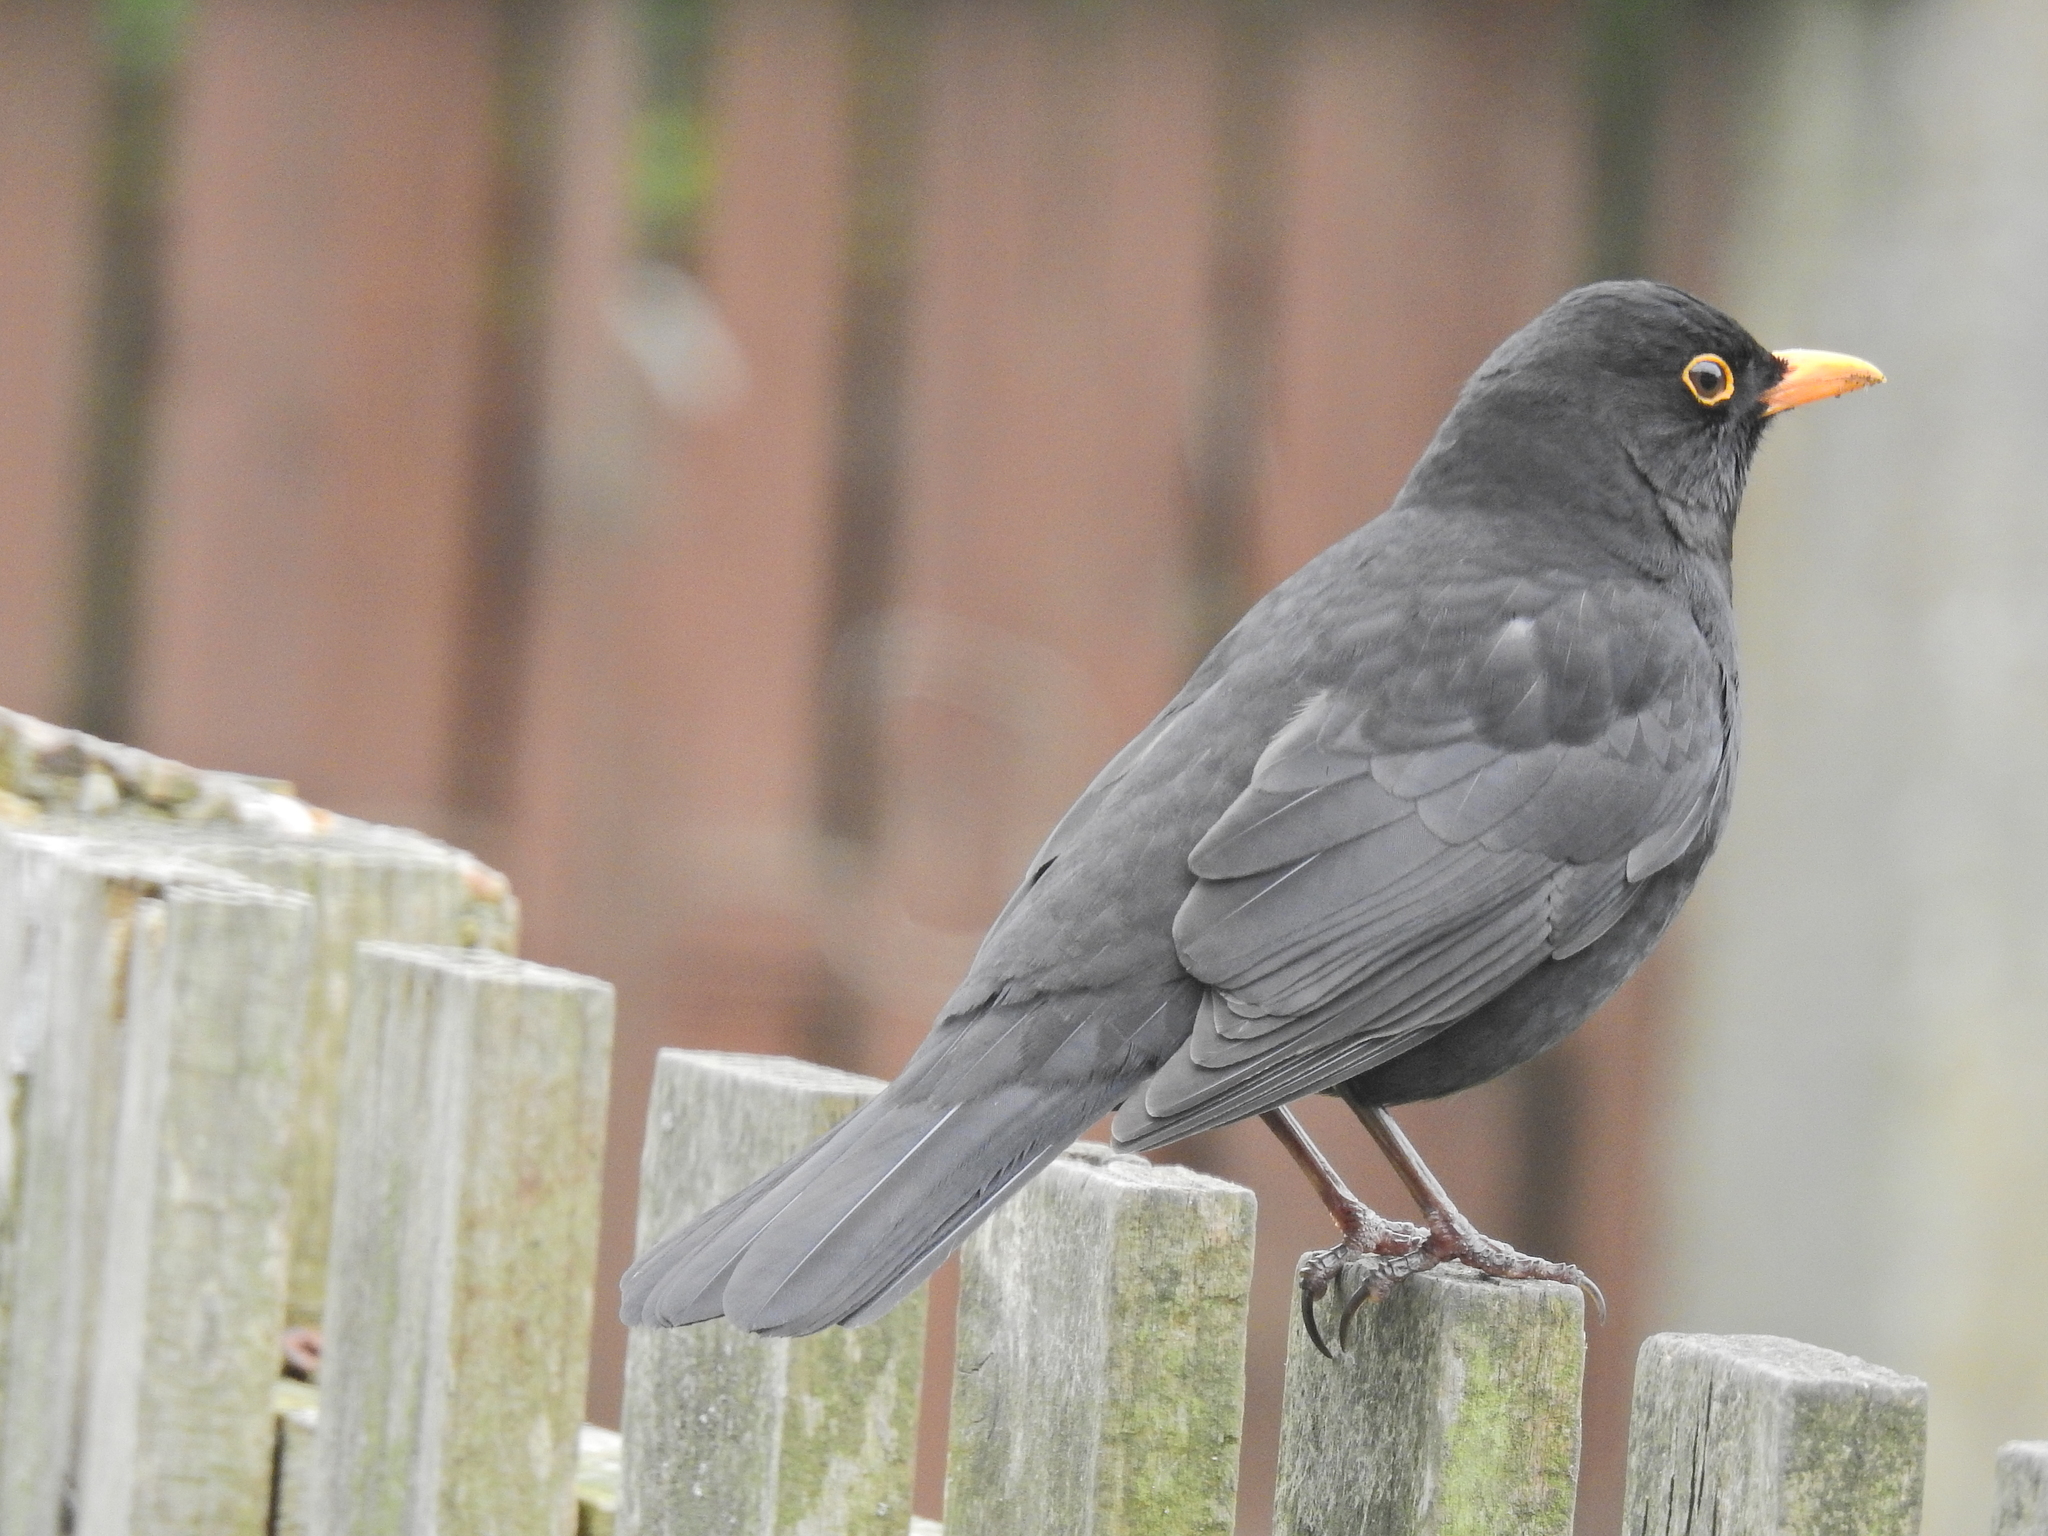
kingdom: Animalia
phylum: Chordata
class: Aves
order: Passeriformes
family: Turdidae
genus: Turdus
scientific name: Turdus merula
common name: Common blackbird
